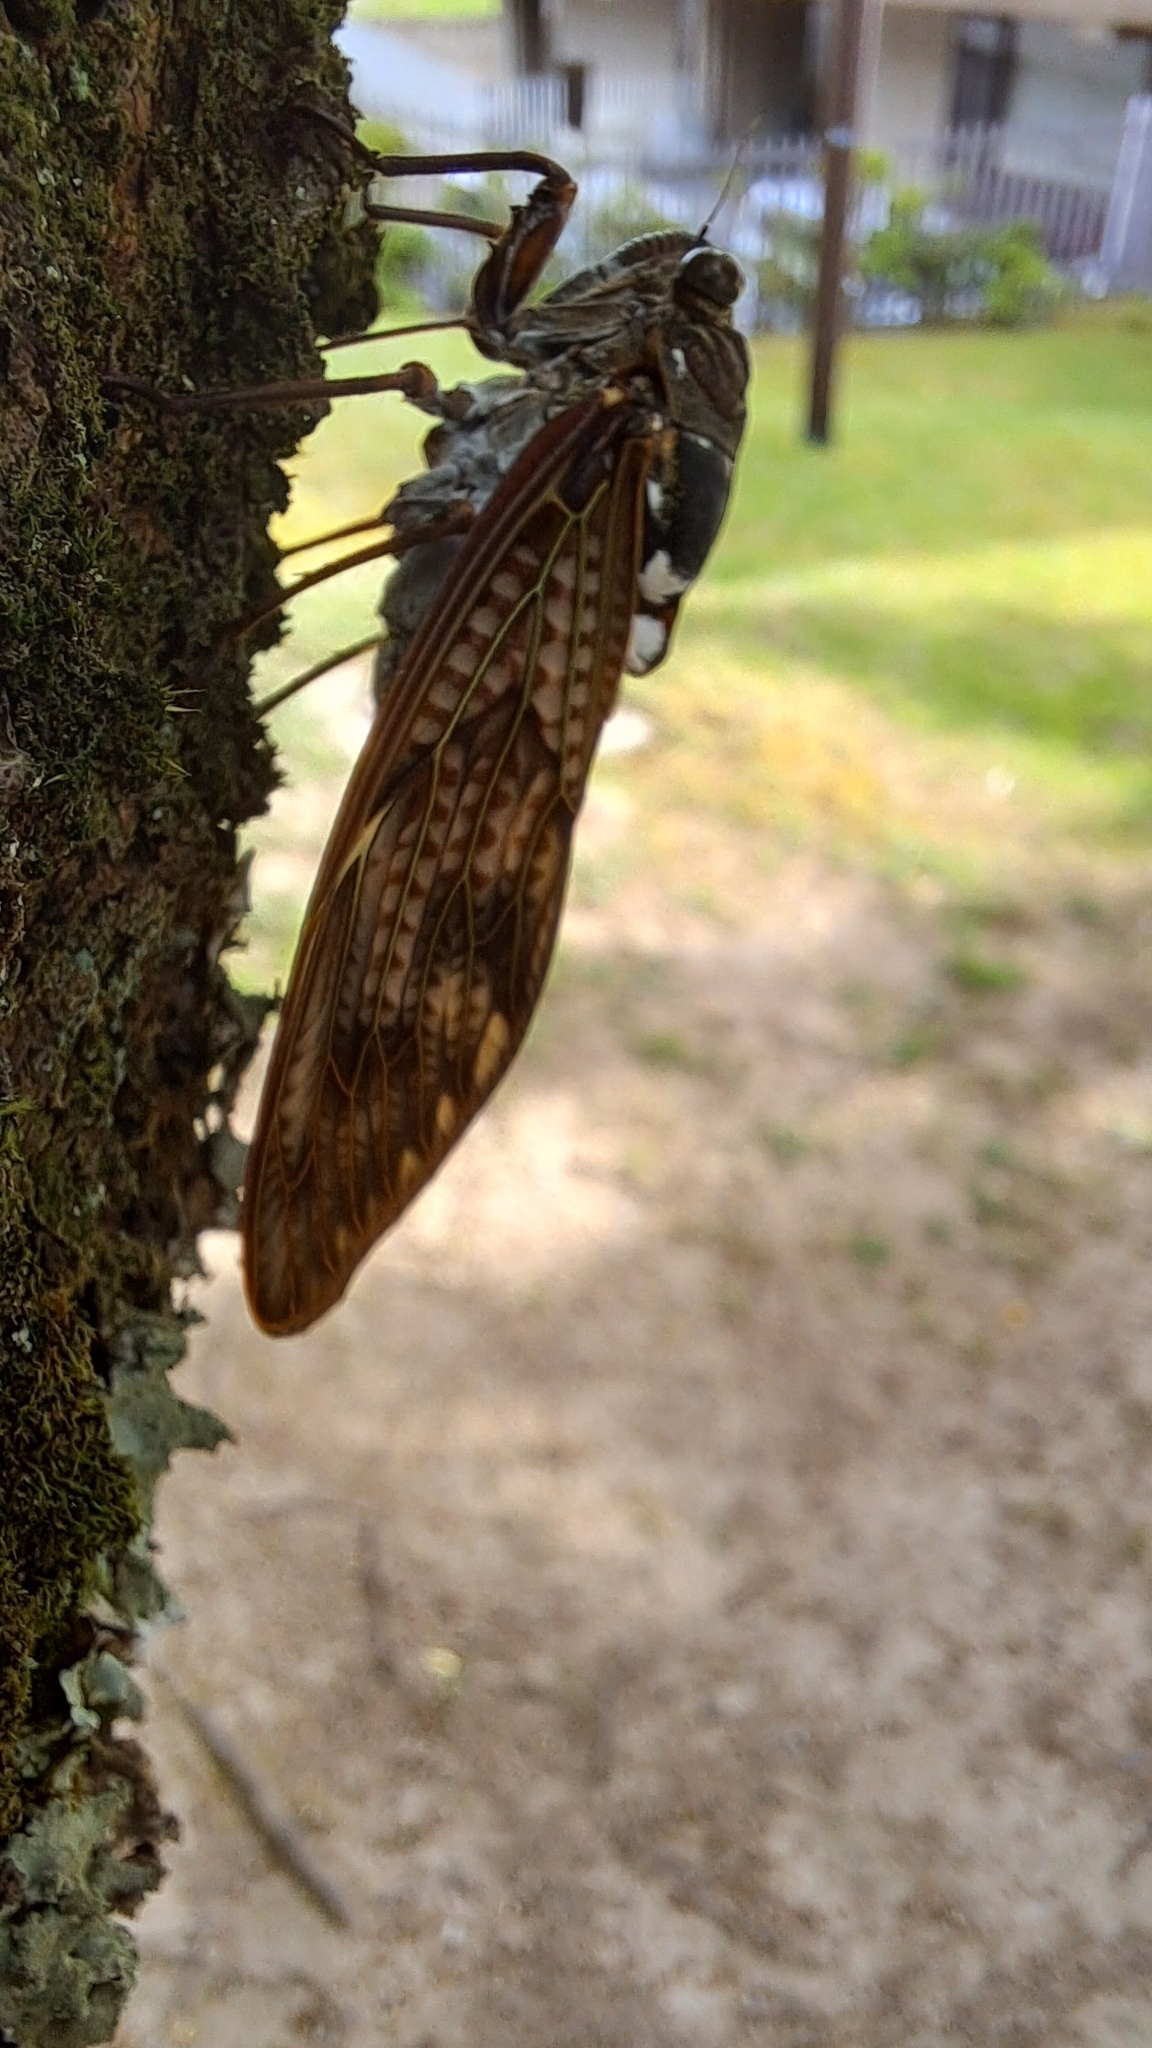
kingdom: Animalia
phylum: Arthropoda
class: Insecta
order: Hemiptera
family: Cicadidae
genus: Graptopsaltria
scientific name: Graptopsaltria nigrofuscata
